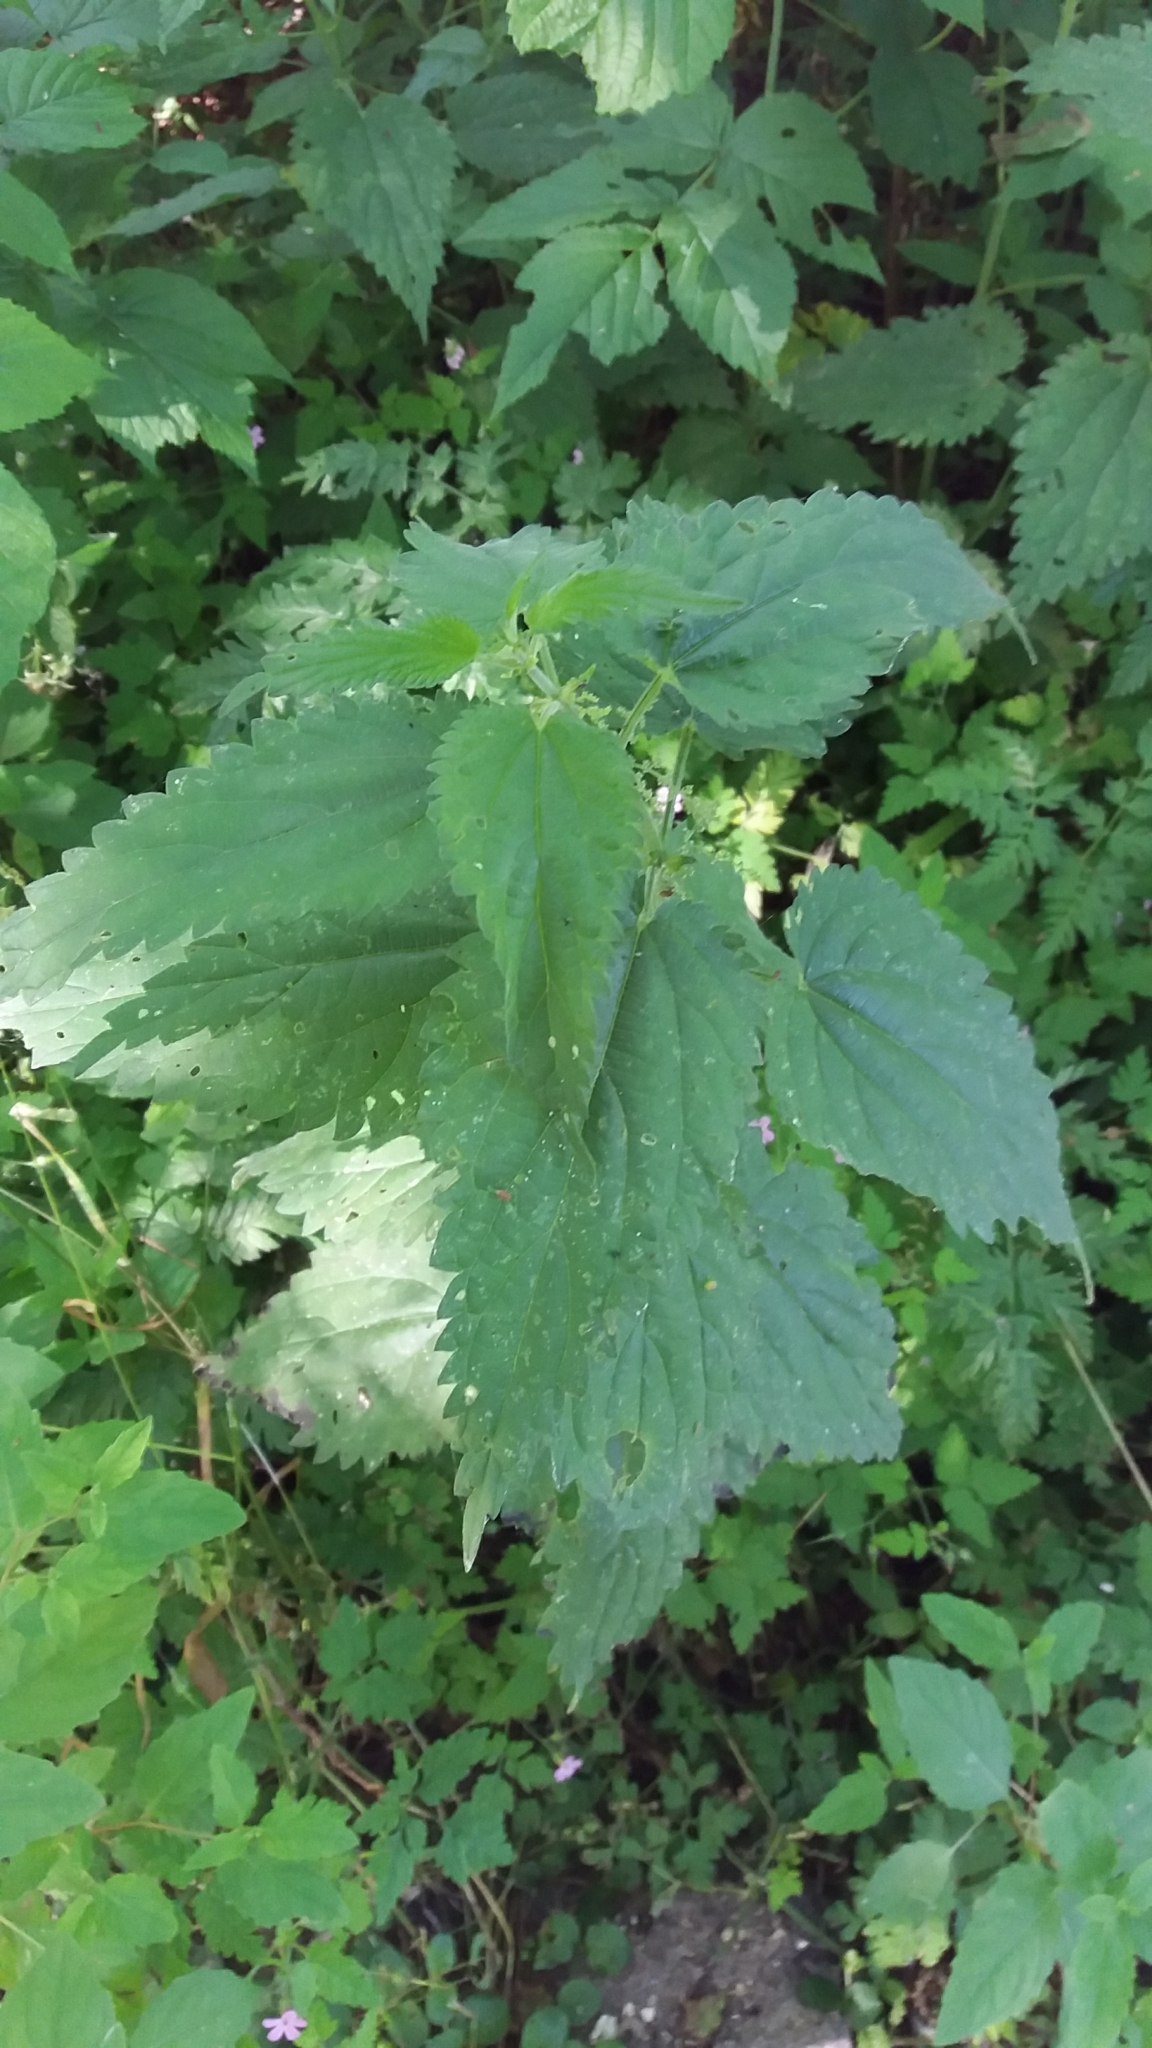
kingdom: Plantae
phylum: Tracheophyta
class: Magnoliopsida
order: Rosales
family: Urticaceae
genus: Urtica
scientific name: Urtica dioica
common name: Common nettle
